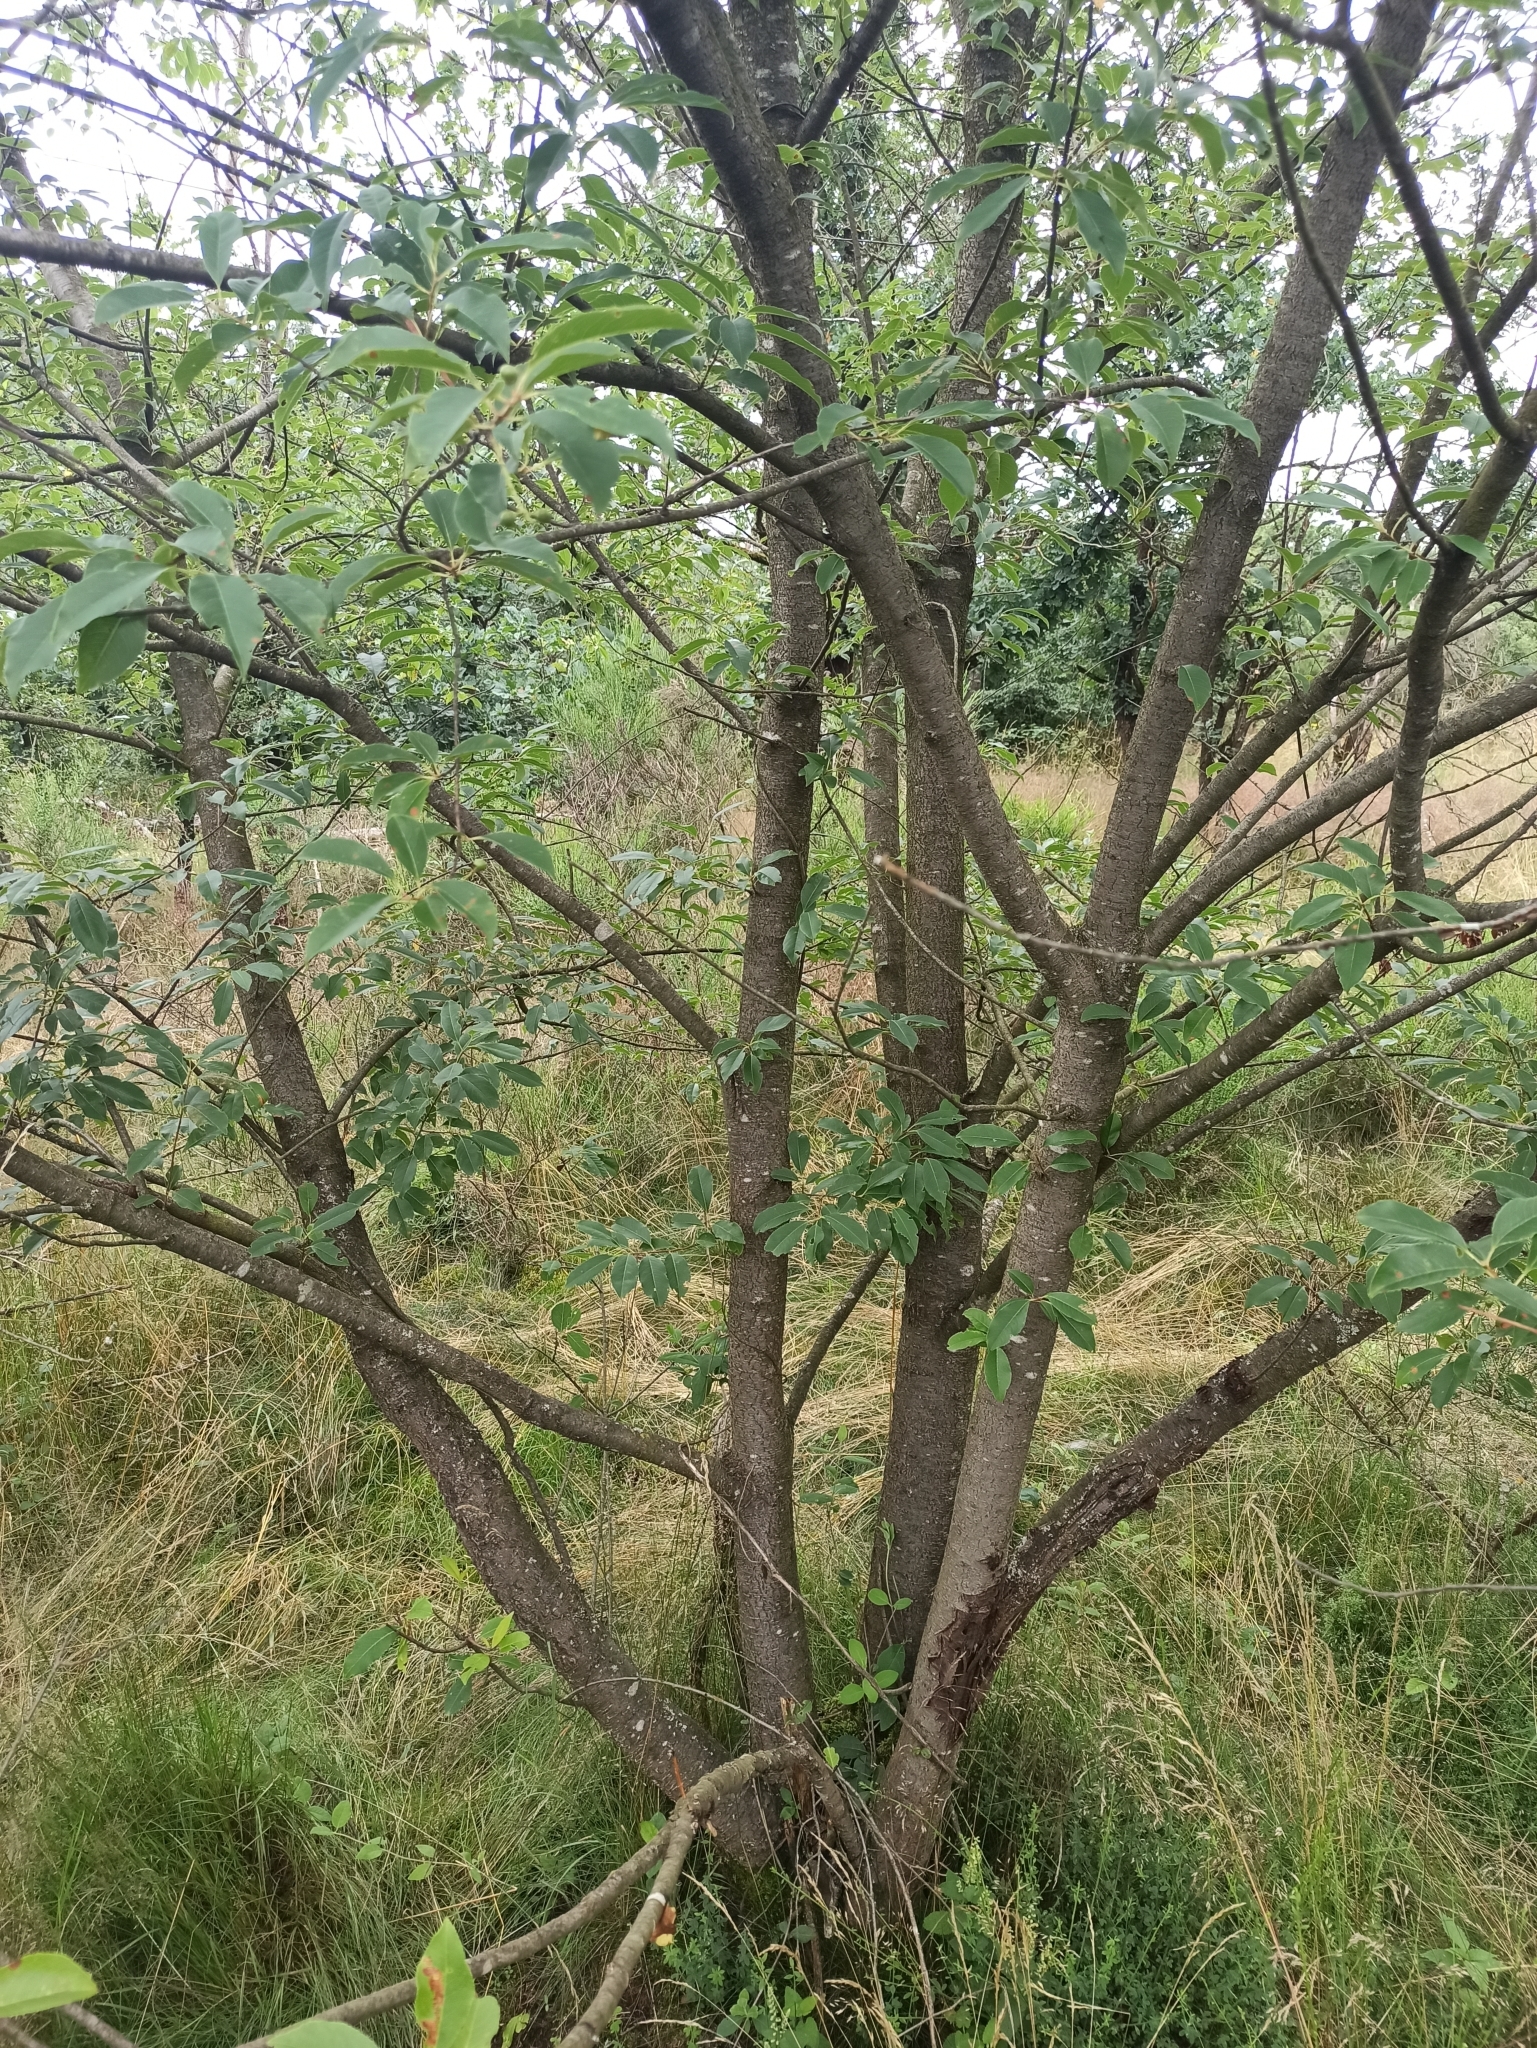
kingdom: Plantae
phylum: Tracheophyta
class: Magnoliopsida
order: Rosales
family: Rosaceae
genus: Prunus
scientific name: Prunus serotina
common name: Black cherry
